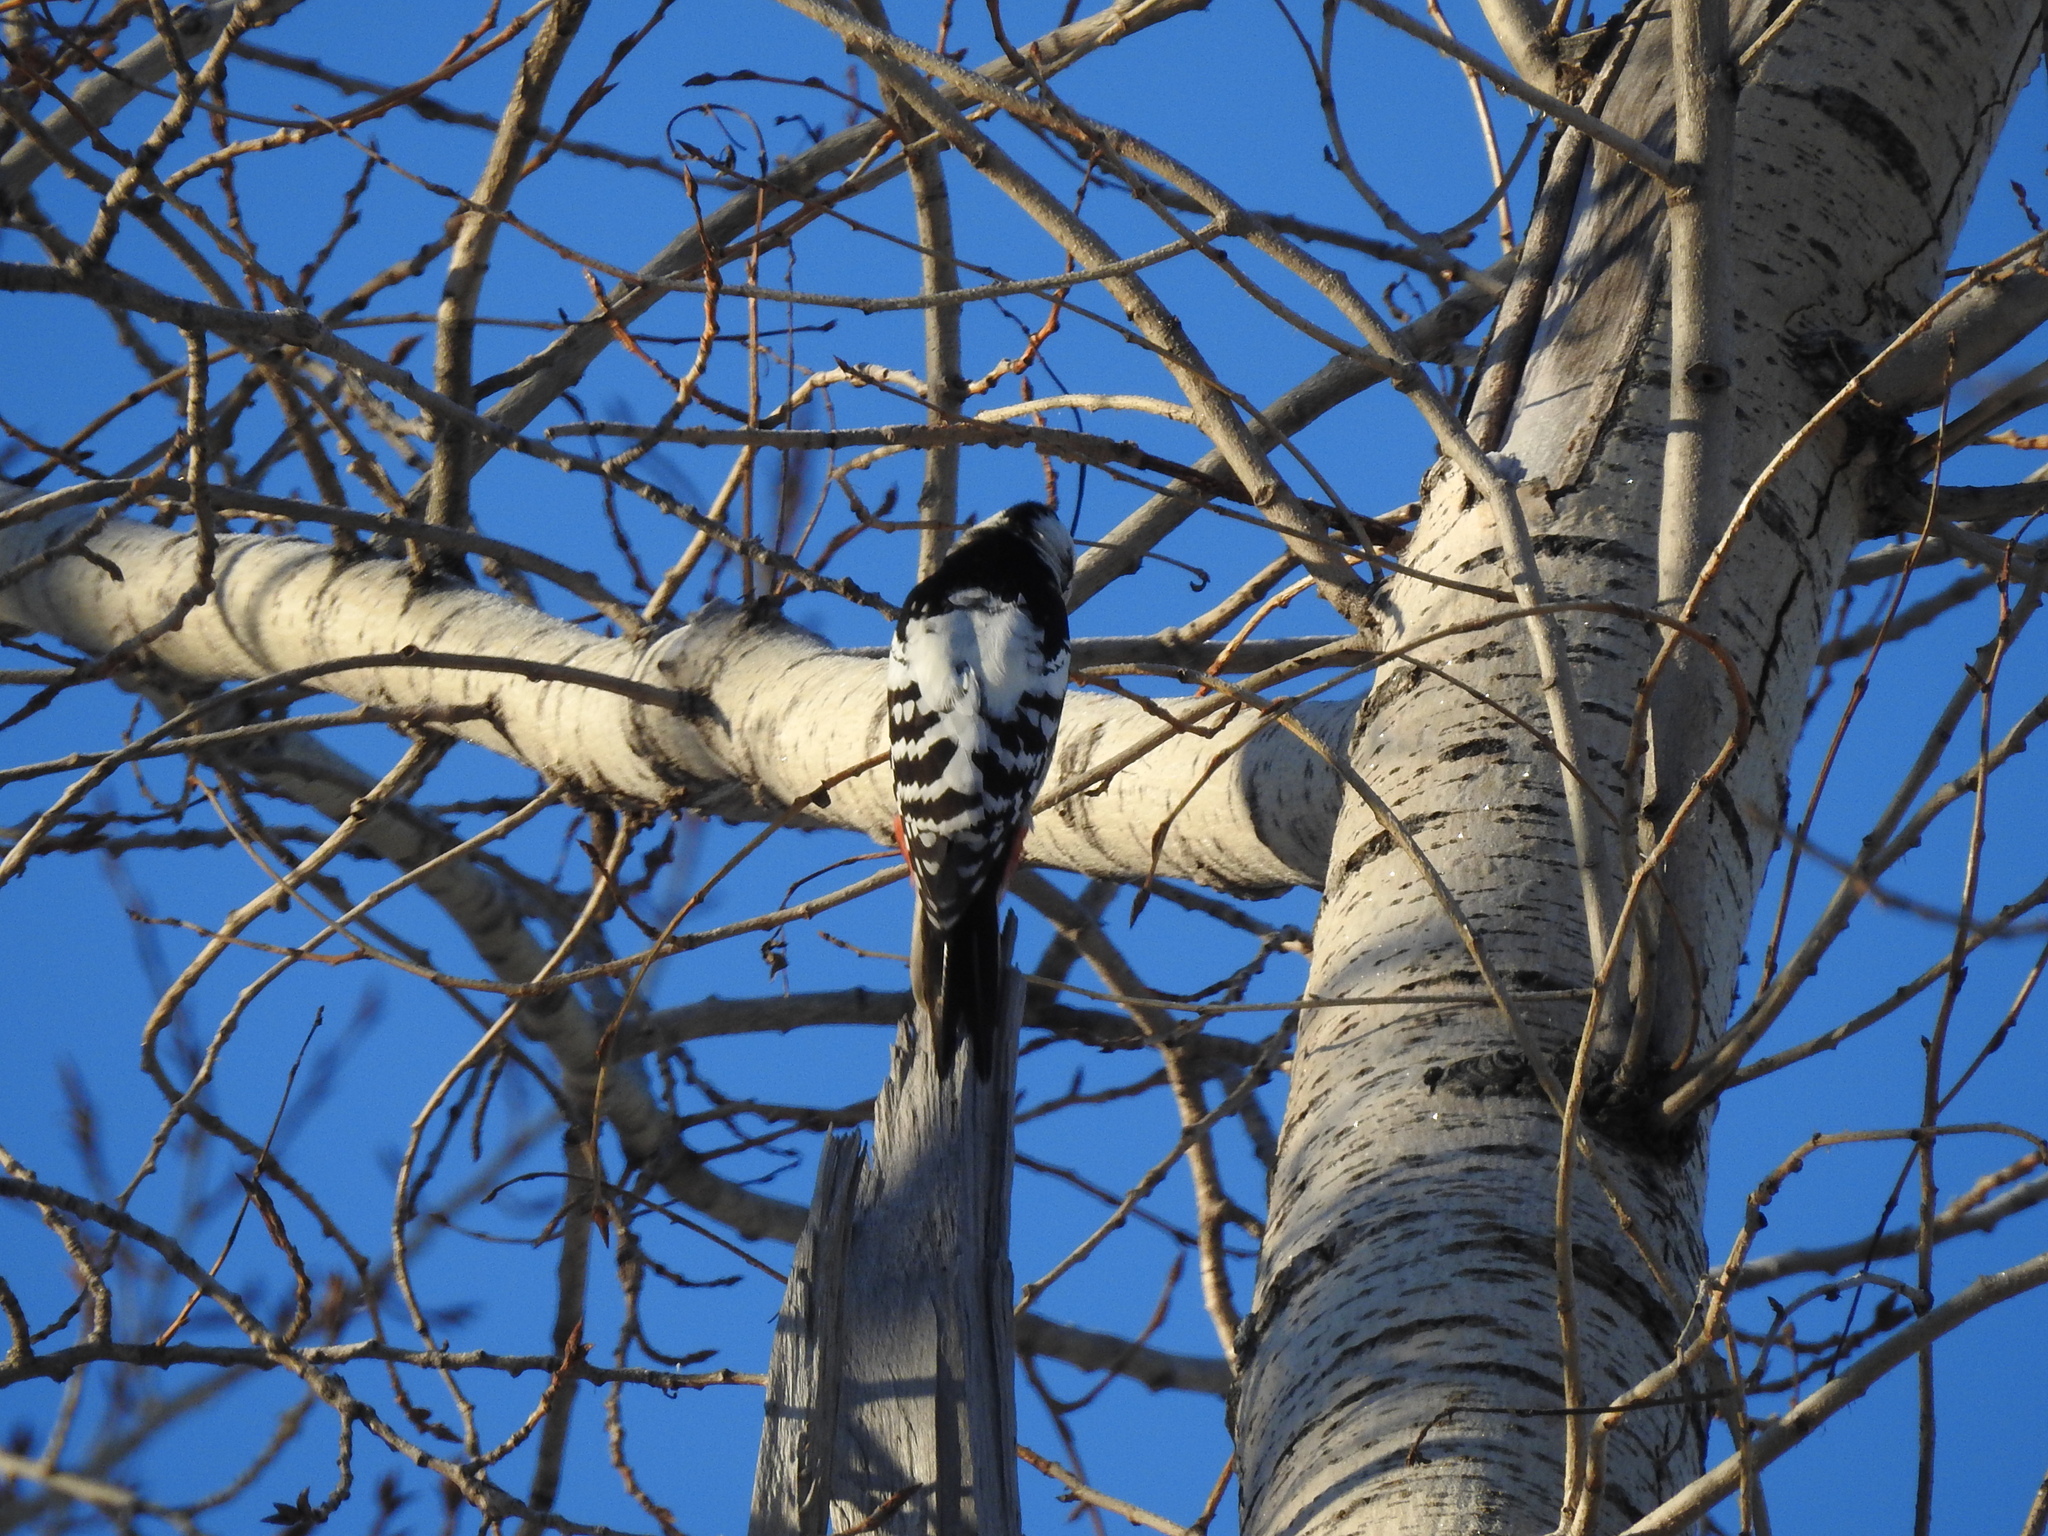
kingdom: Animalia
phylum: Chordata
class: Aves
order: Piciformes
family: Picidae
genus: Dendrocopos
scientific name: Dendrocopos leucotos
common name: White-backed woodpecker
